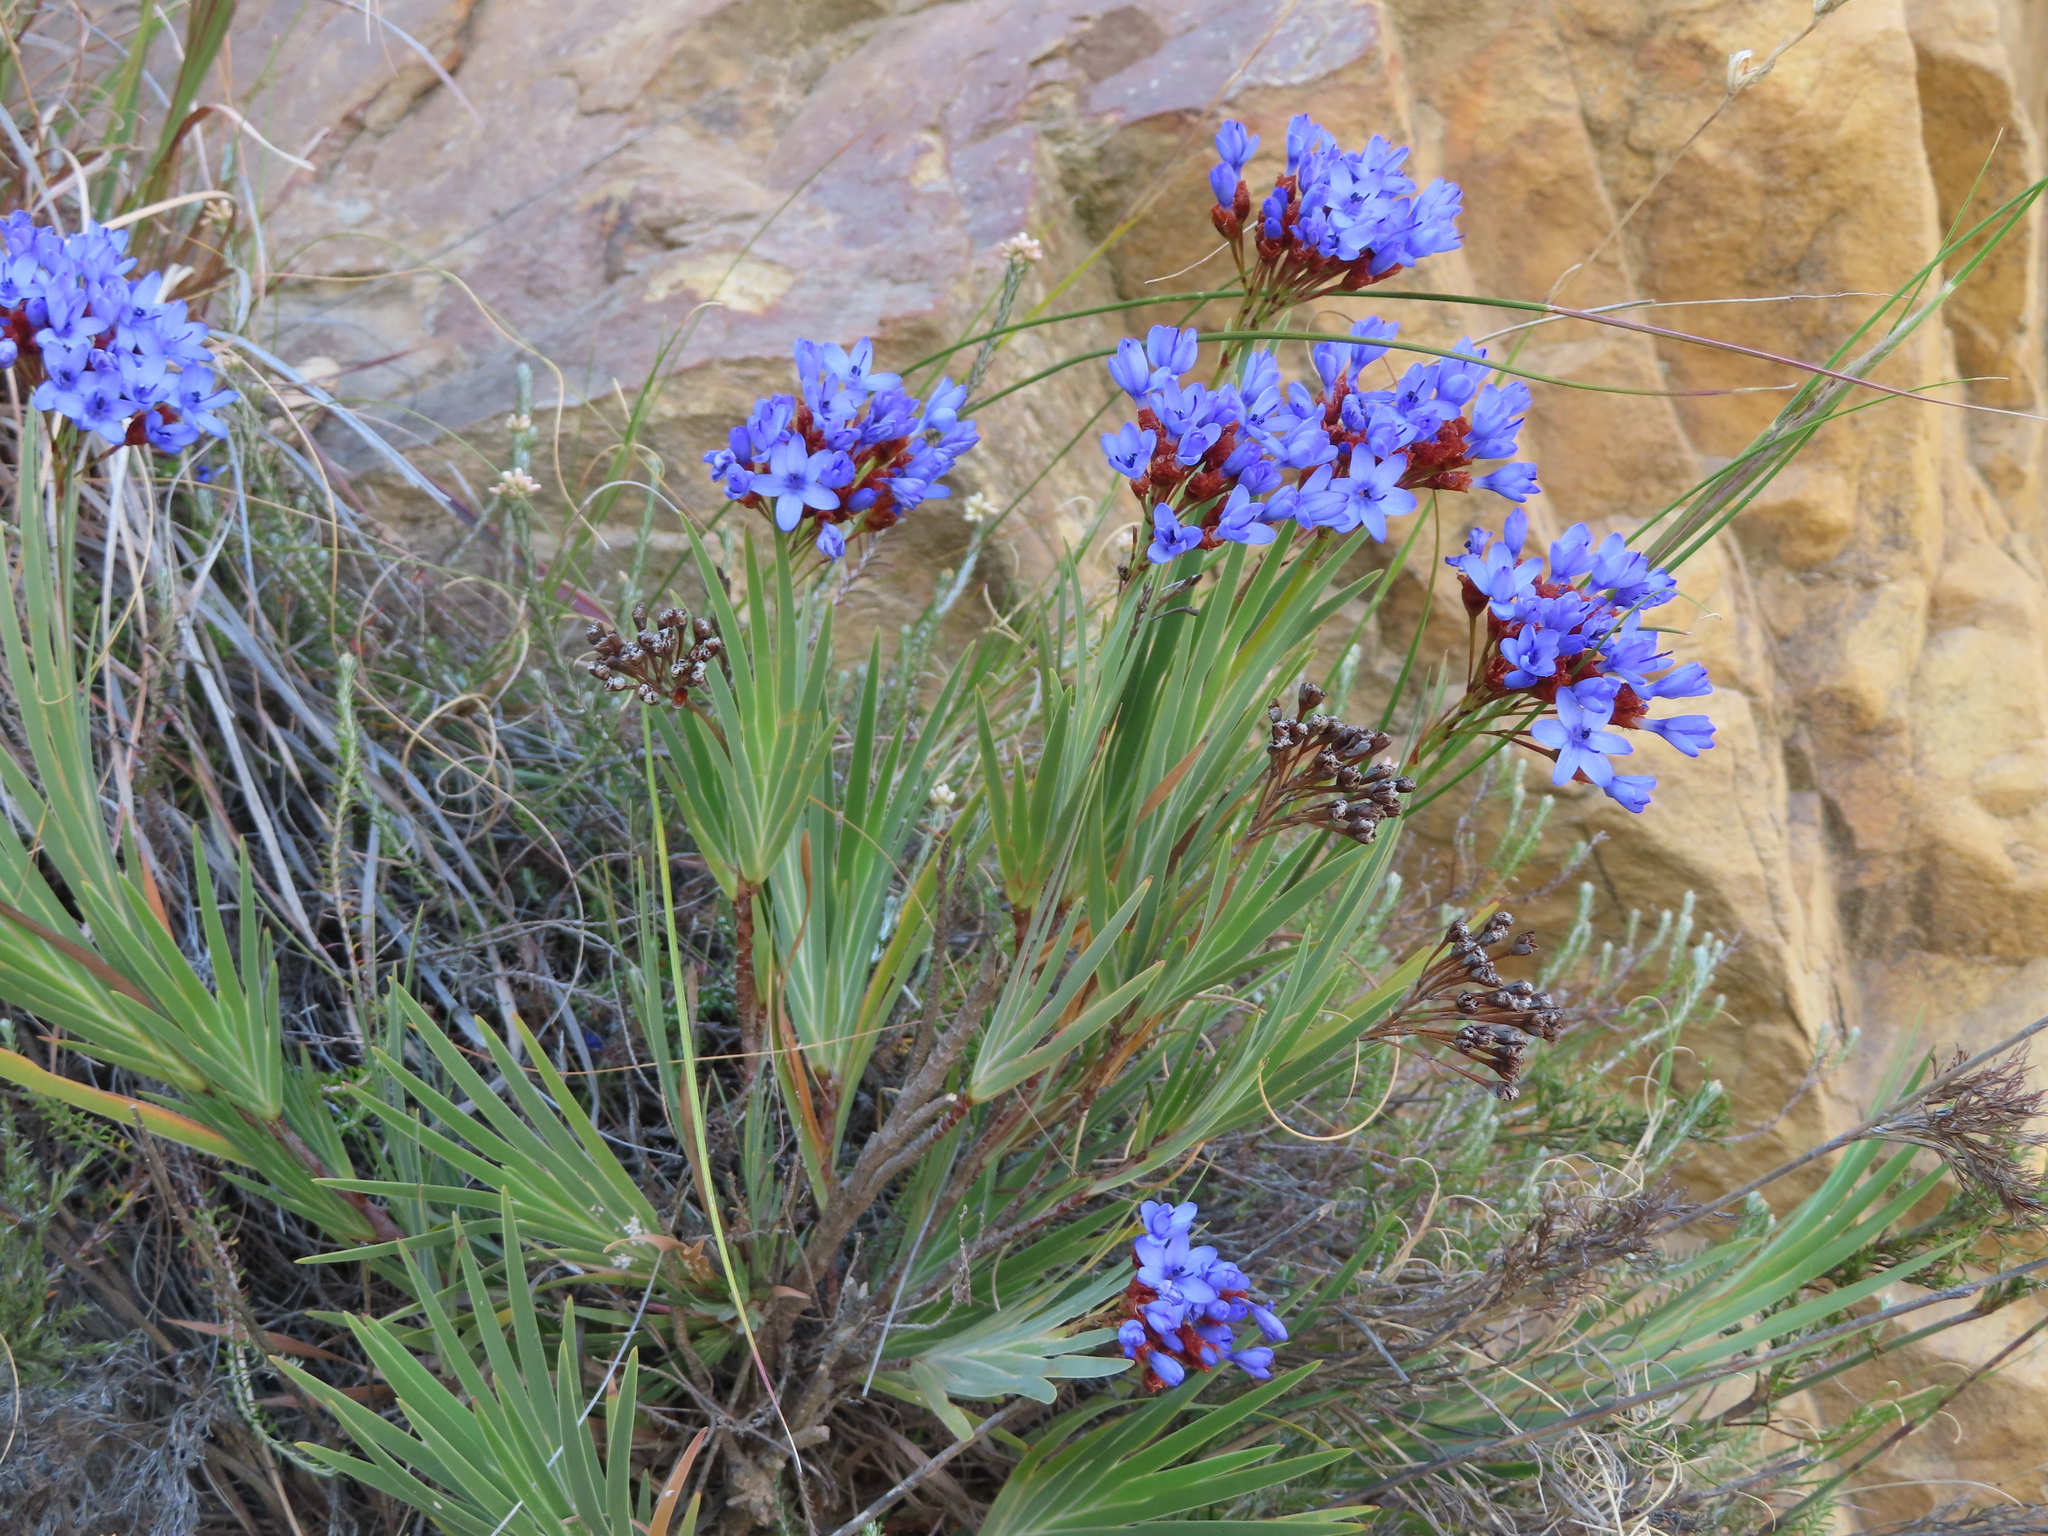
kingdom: Plantae
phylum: Tracheophyta
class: Liliopsida
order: Asparagales
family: Iridaceae
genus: Nivenia
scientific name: Nivenia binata
